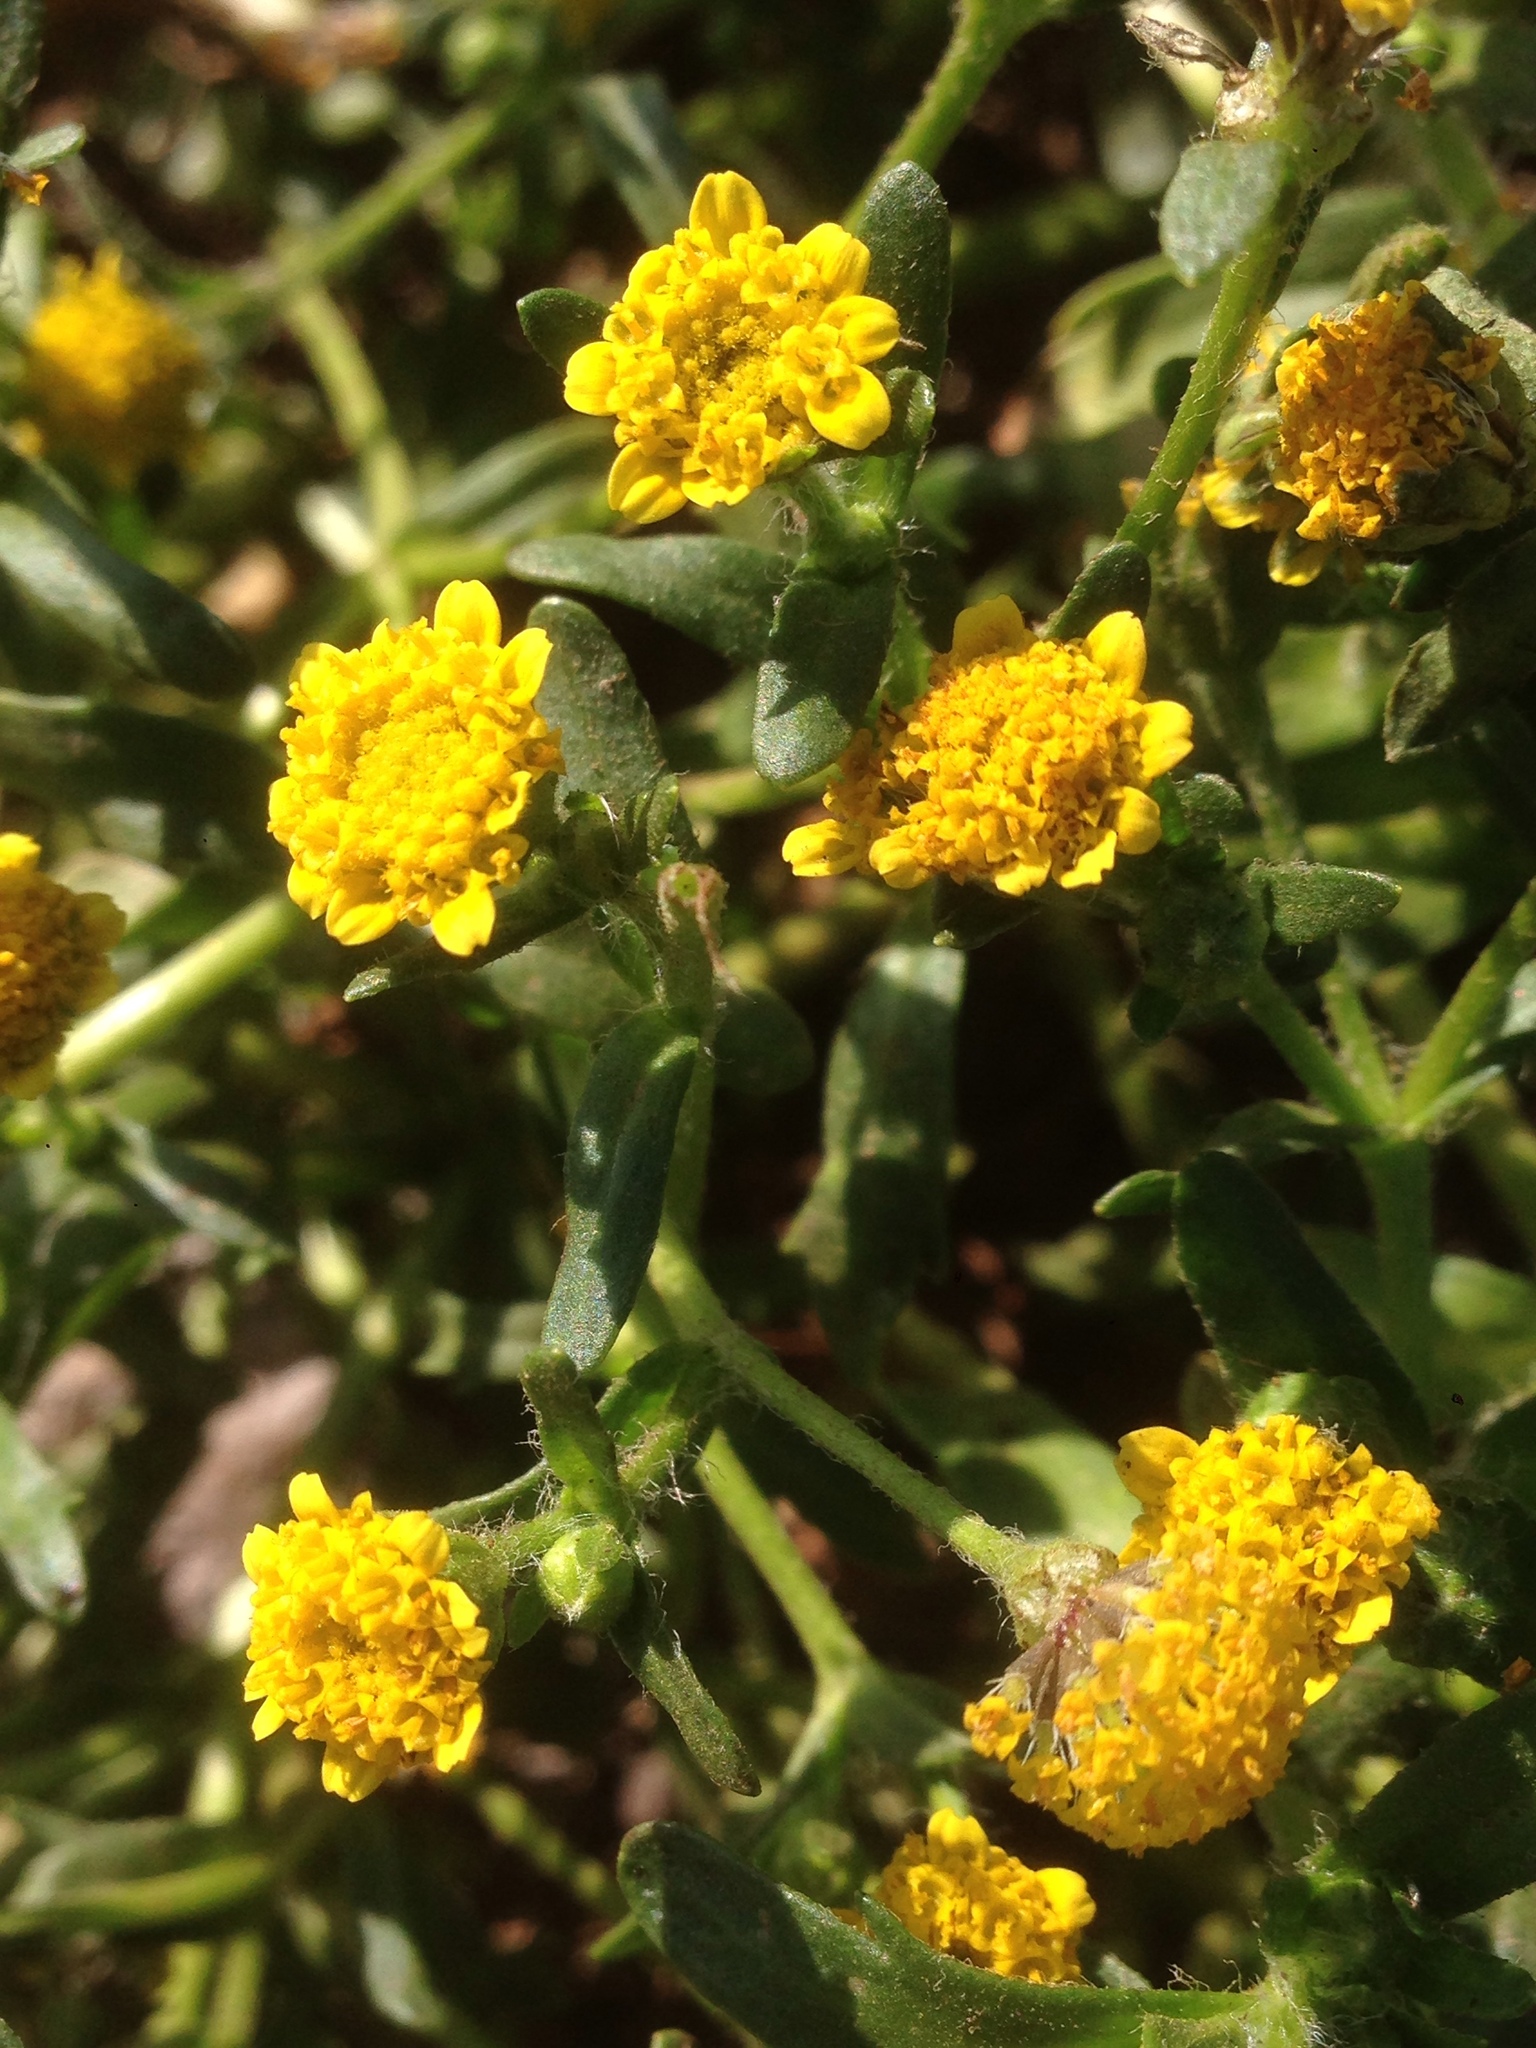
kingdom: Plantae
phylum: Tracheophyta
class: Magnoliopsida
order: Asterales
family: Asteraceae
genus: Lasthenia
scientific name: Lasthenia maritima
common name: Hairy goldfields
